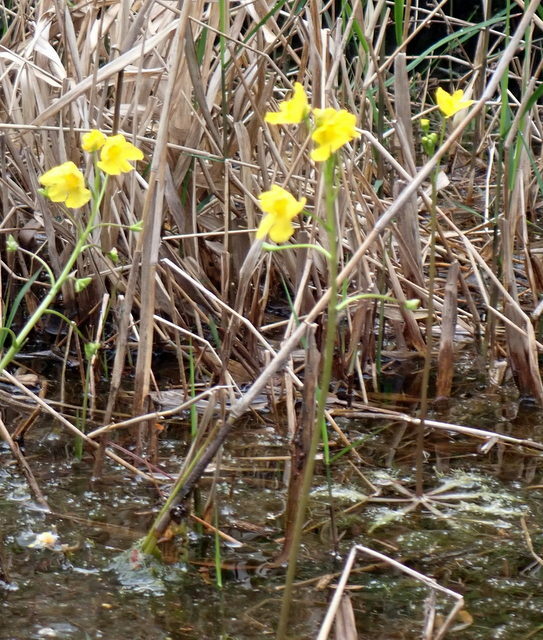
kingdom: Plantae
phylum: Tracheophyta
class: Magnoliopsida
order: Lamiales
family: Lentibulariaceae
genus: Utricularia
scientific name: Utricularia inflata
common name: Floating bladderwort
